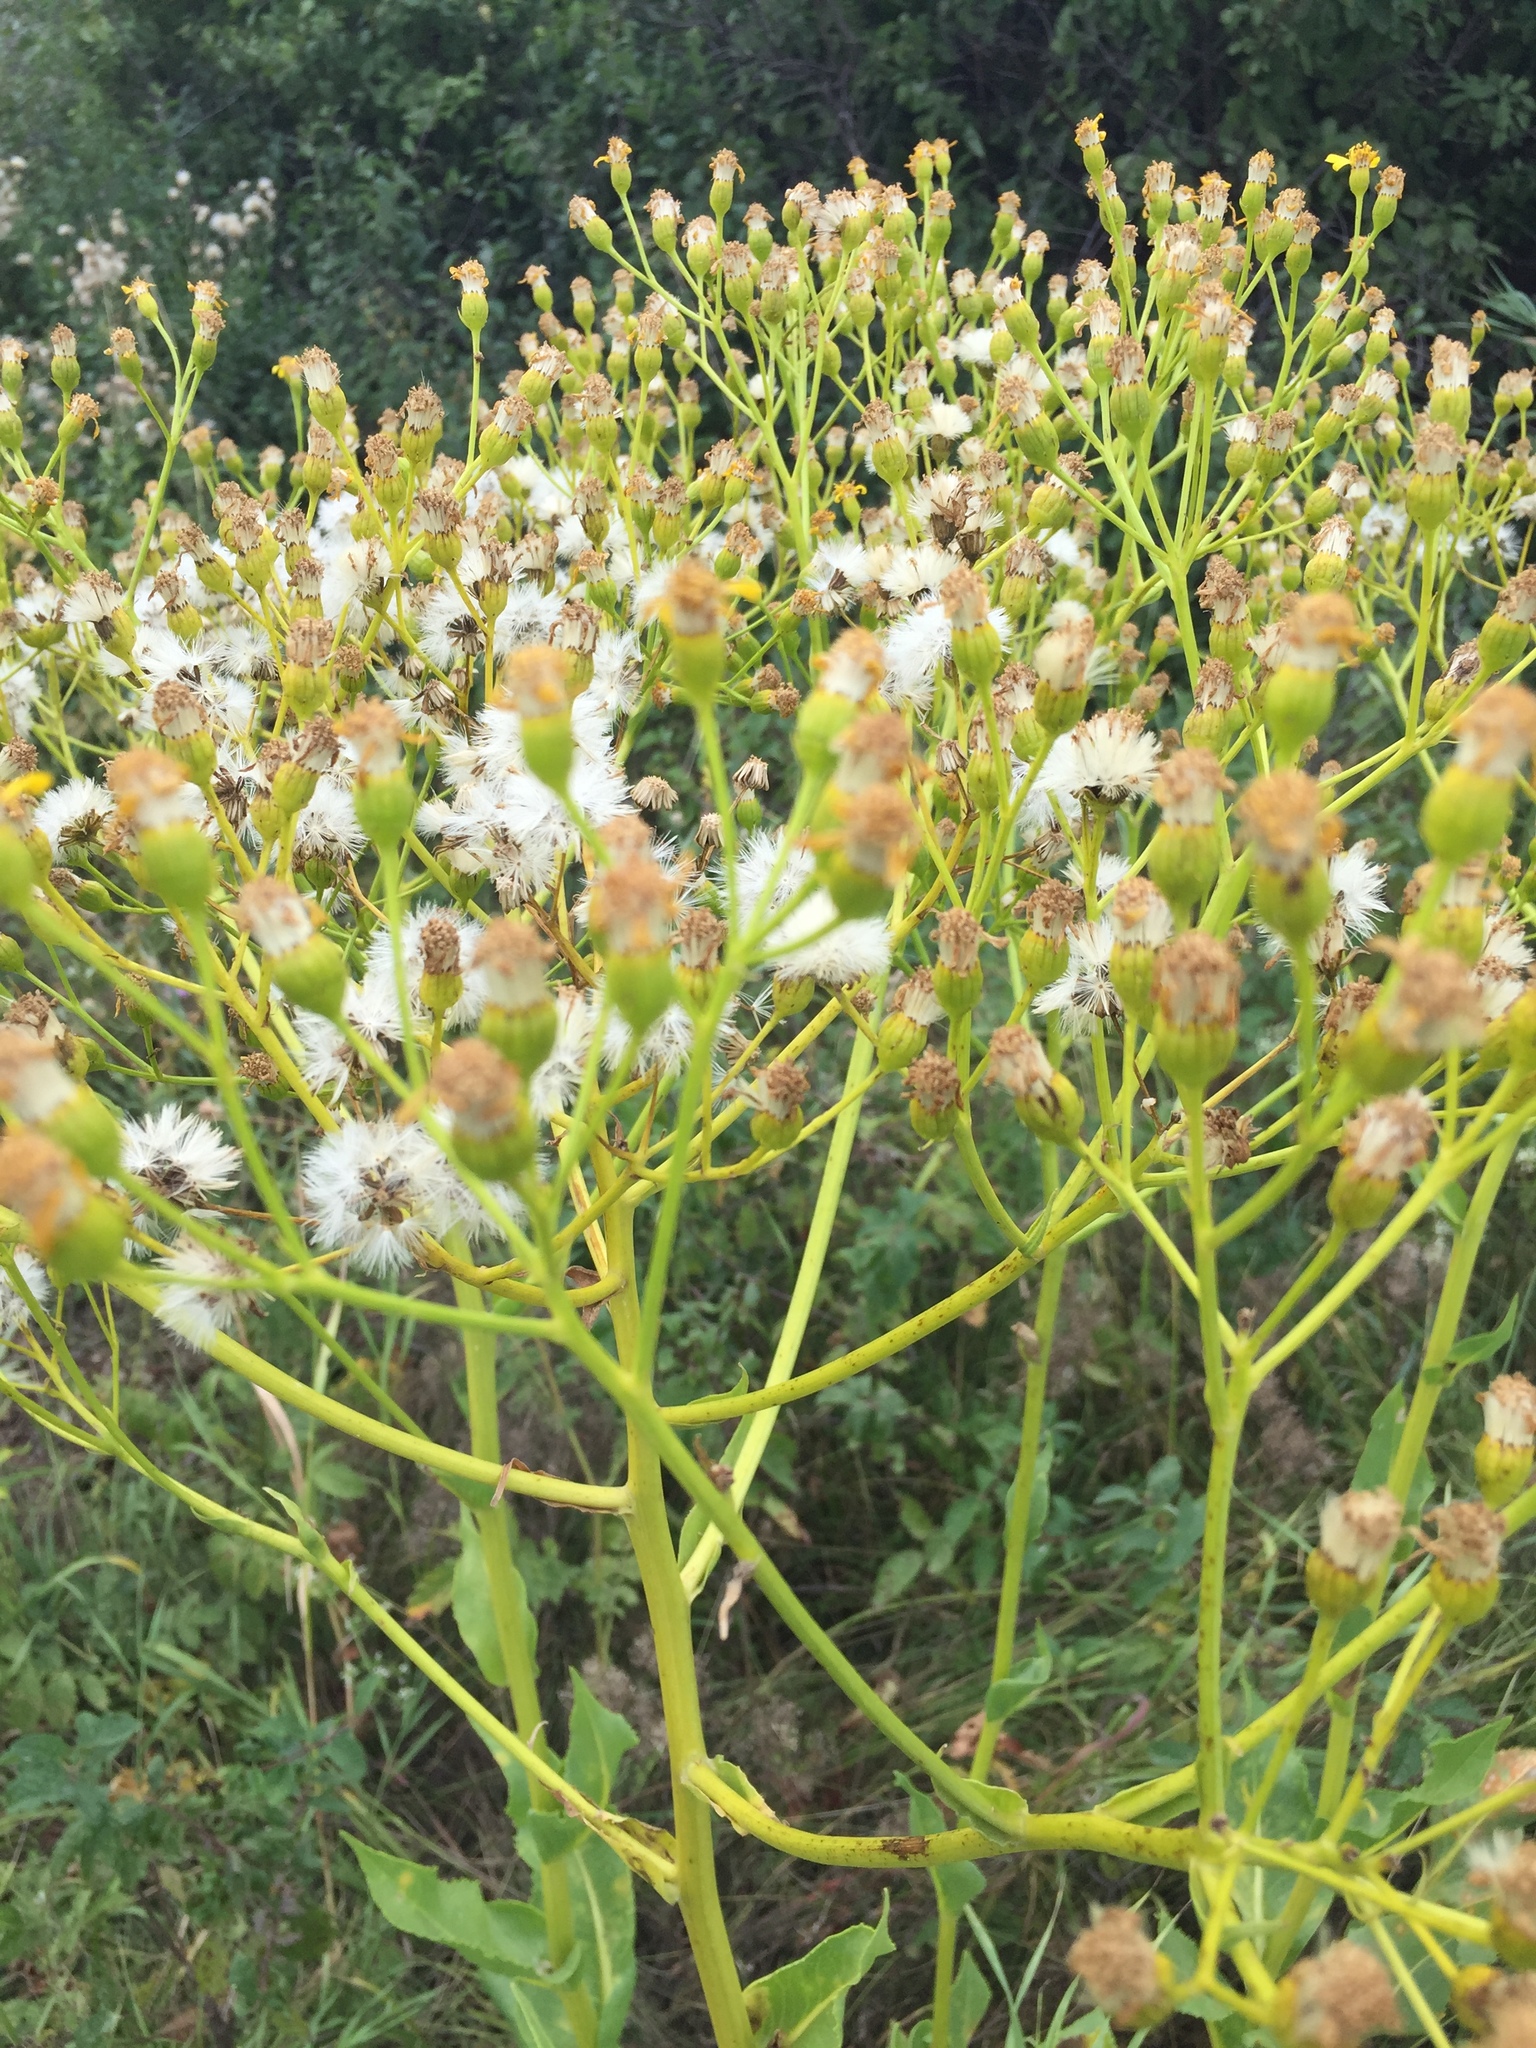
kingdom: Plantae
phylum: Tracheophyta
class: Magnoliopsida
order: Asterales
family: Asteraceae
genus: Senecio
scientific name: Senecio doria
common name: Golden ragwort
